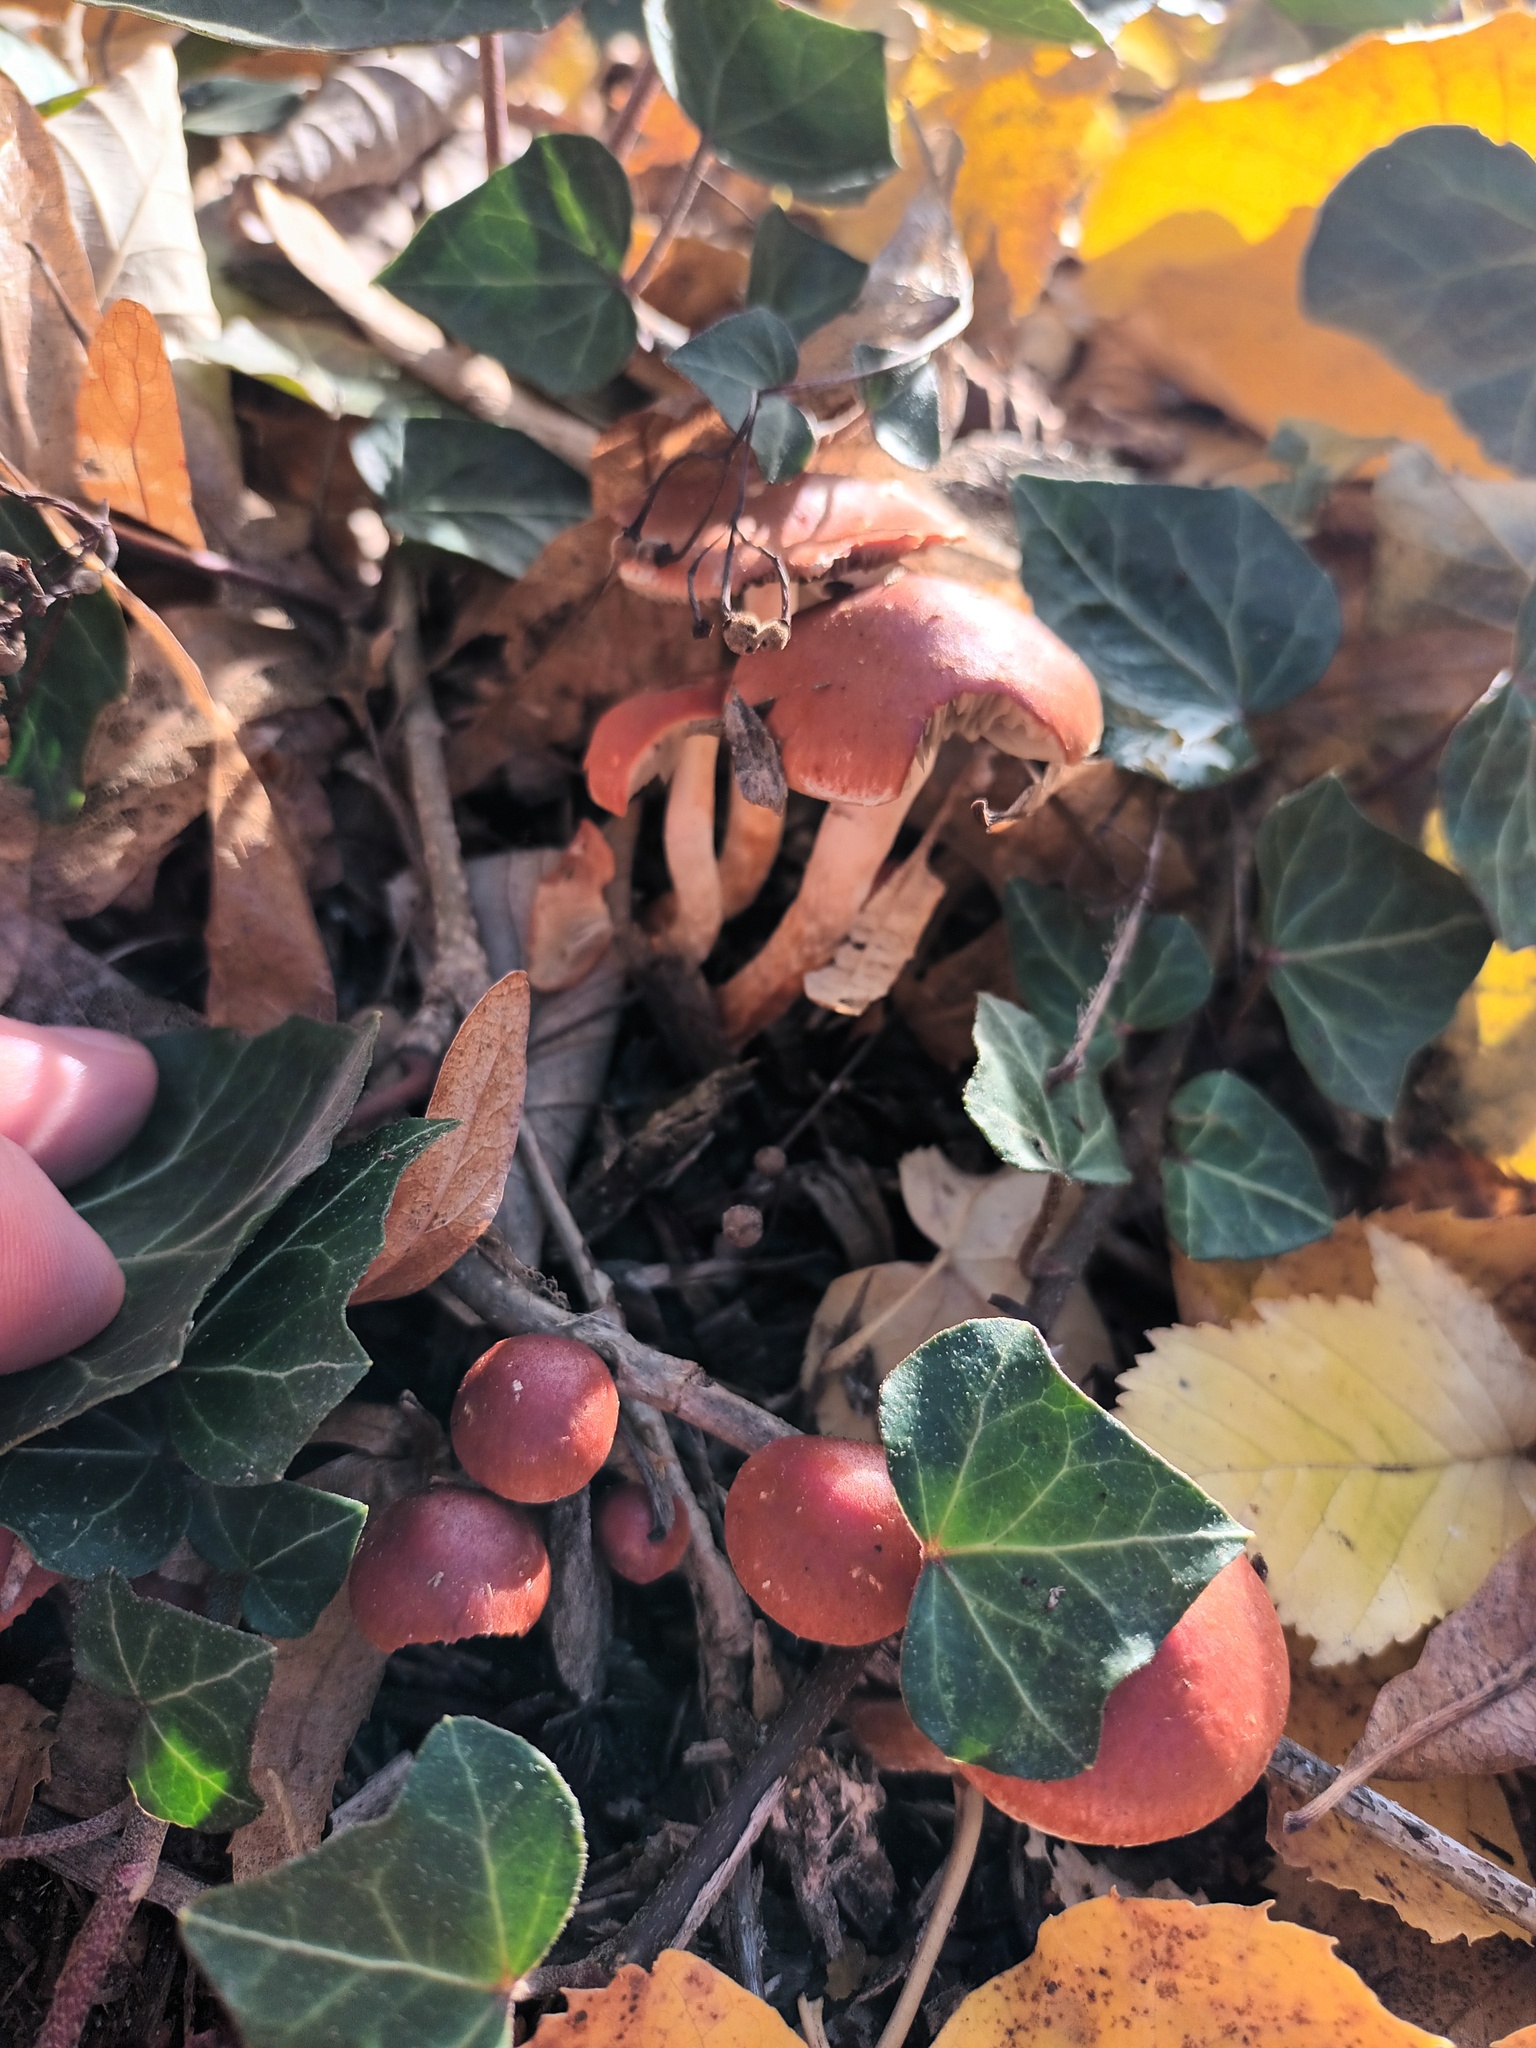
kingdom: Fungi
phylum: Basidiomycota
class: Agaricomycetes
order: Agaricales
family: Strophariaceae
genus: Leratiomyces
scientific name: Leratiomyces ceres
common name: Redlead roundhead
